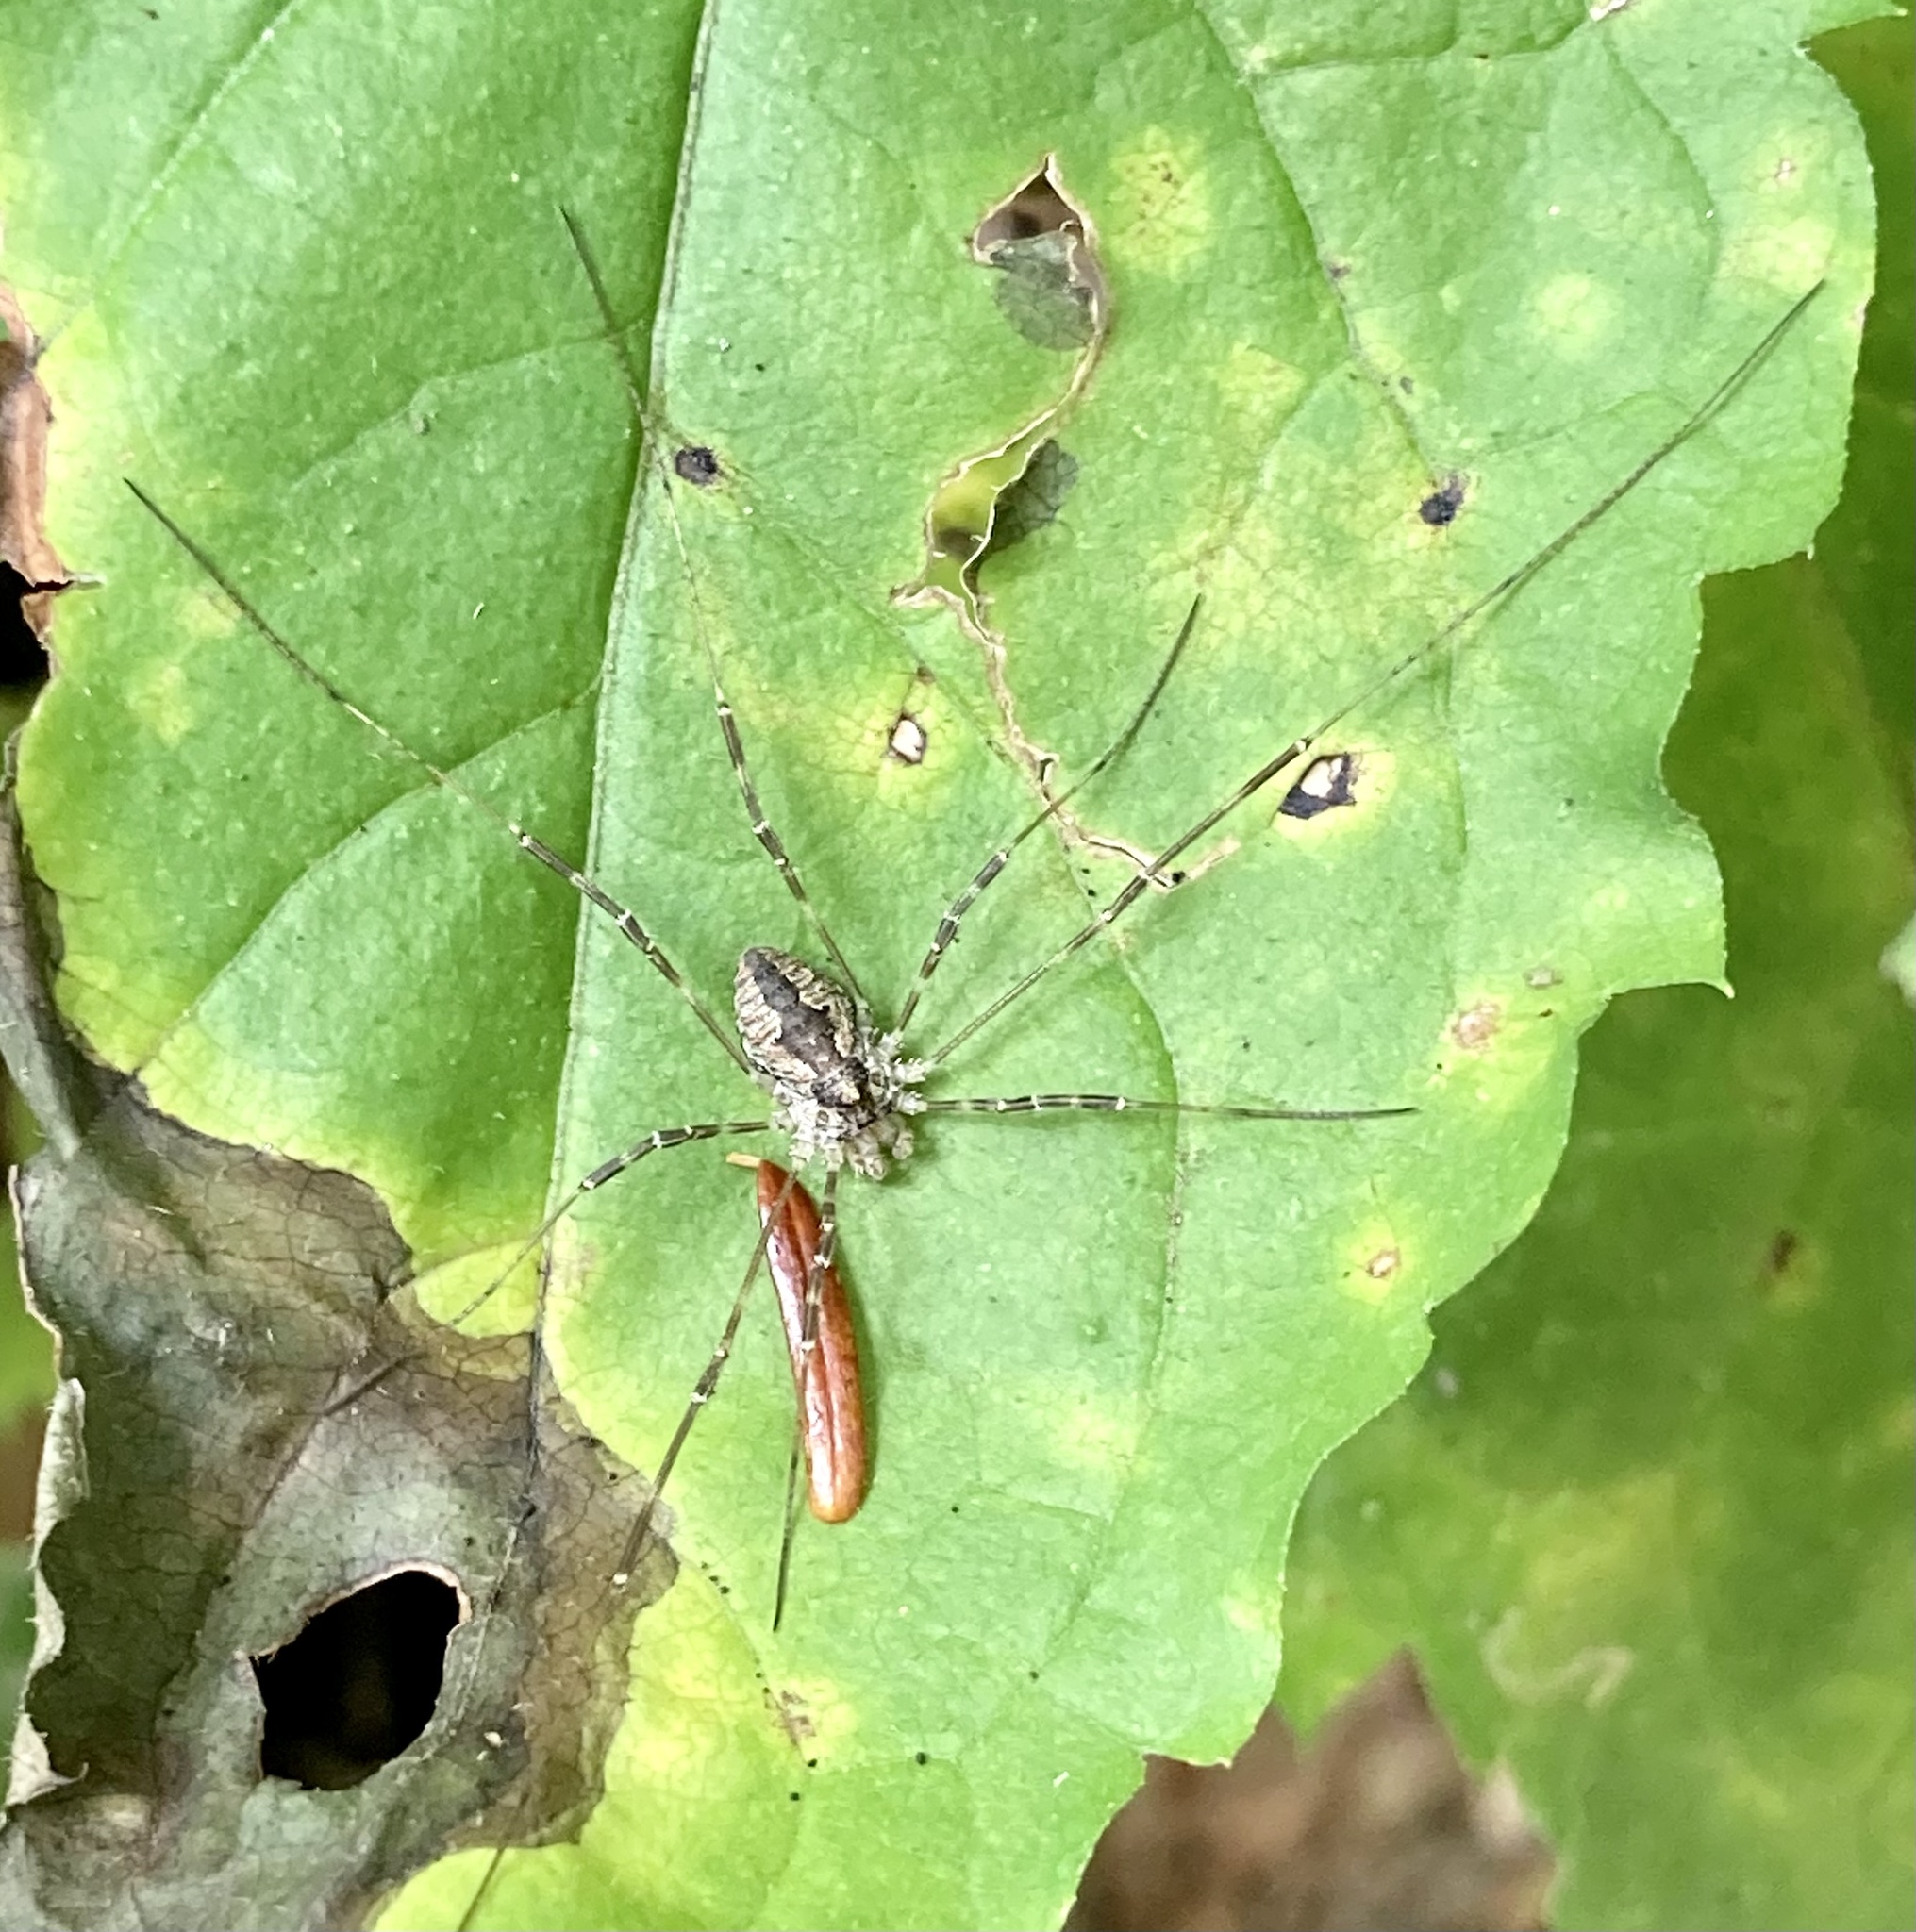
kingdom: Animalia
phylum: Arthropoda
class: Arachnida
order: Opiliones
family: Phalangiidae
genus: Odiellus
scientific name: Odiellus pictus
